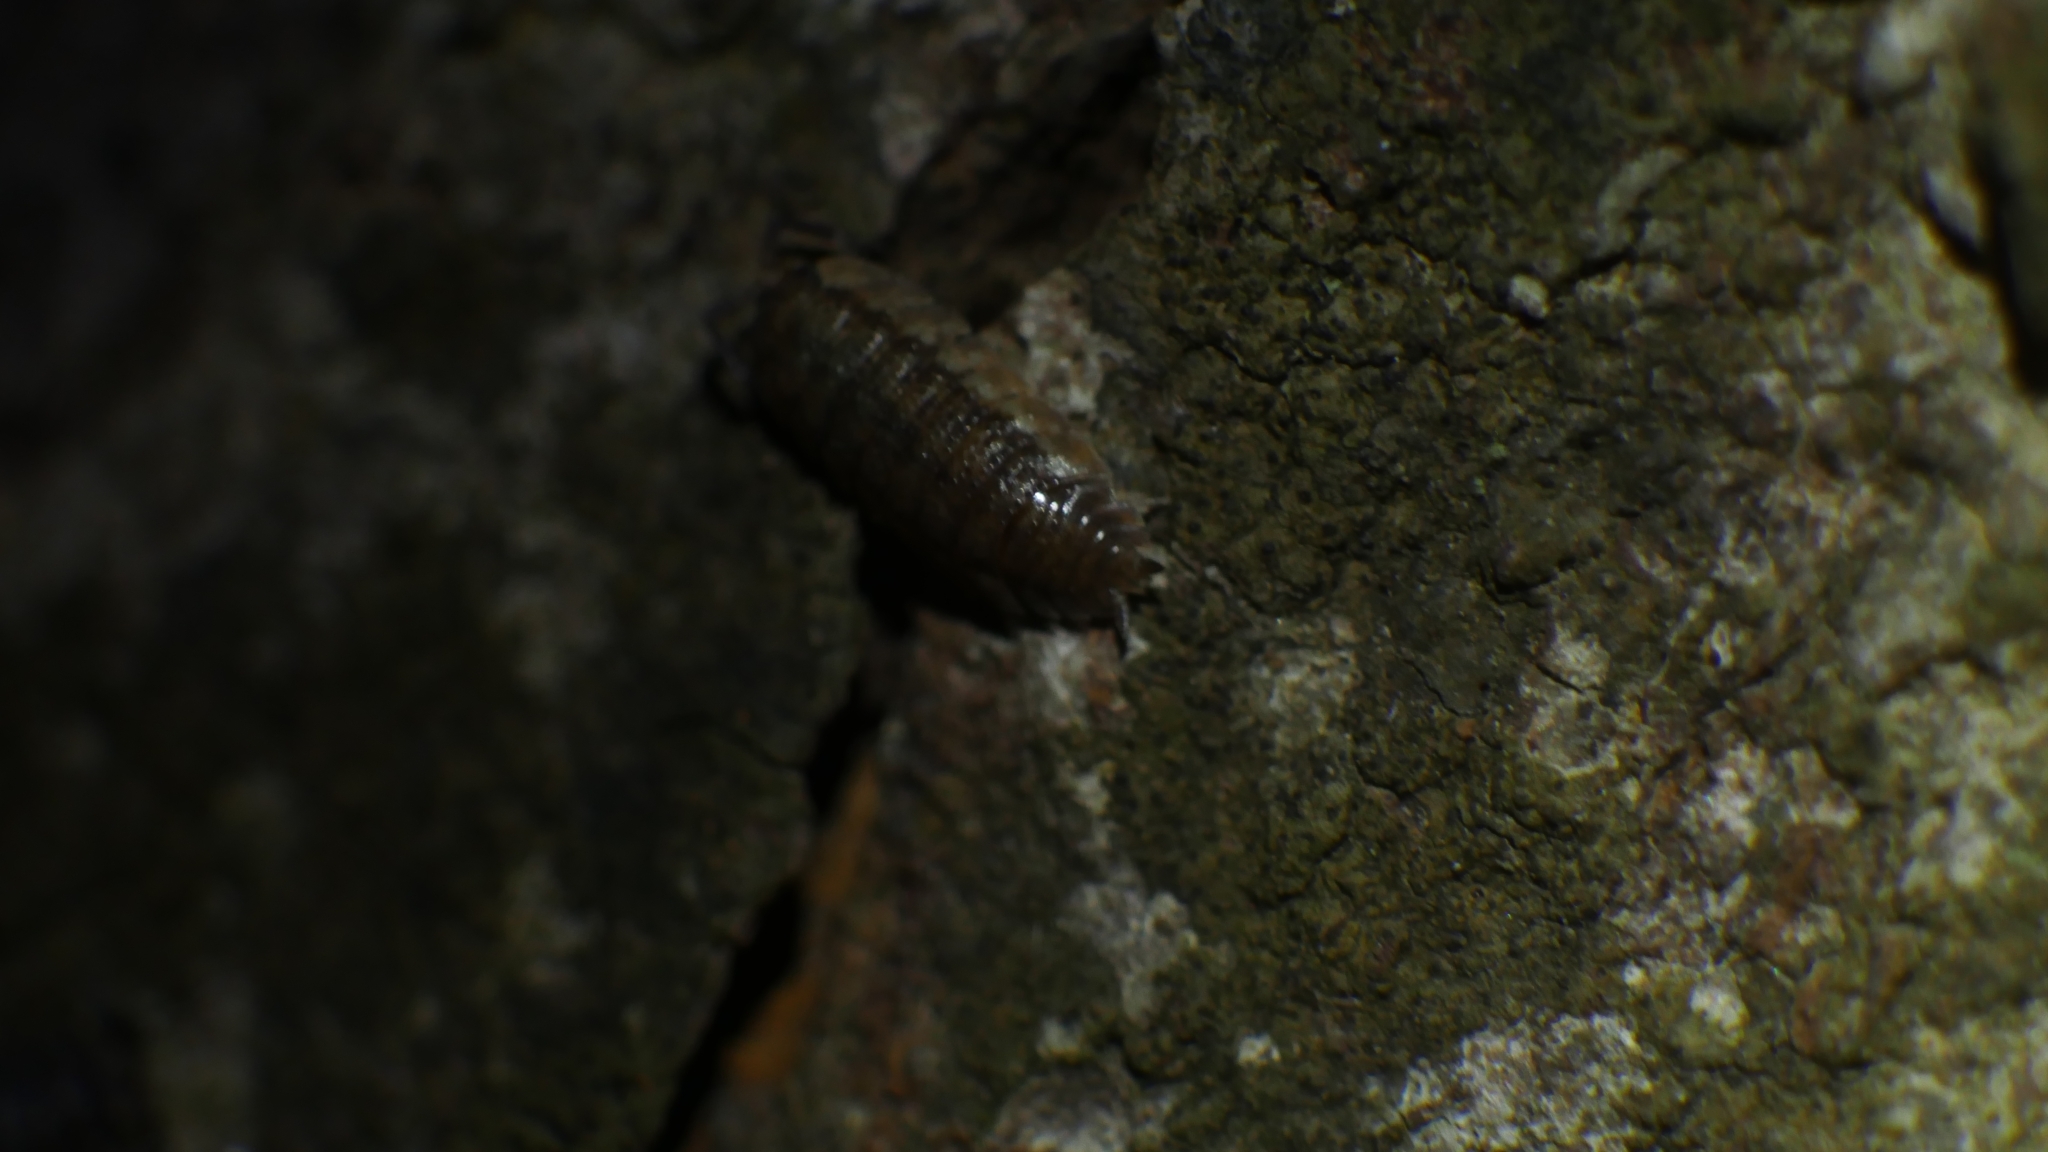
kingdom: Animalia
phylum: Arthropoda
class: Malacostraca
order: Isopoda
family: Porcellionidae
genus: Porcellio
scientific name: Porcellio scaber
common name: Common rough woodlouse
